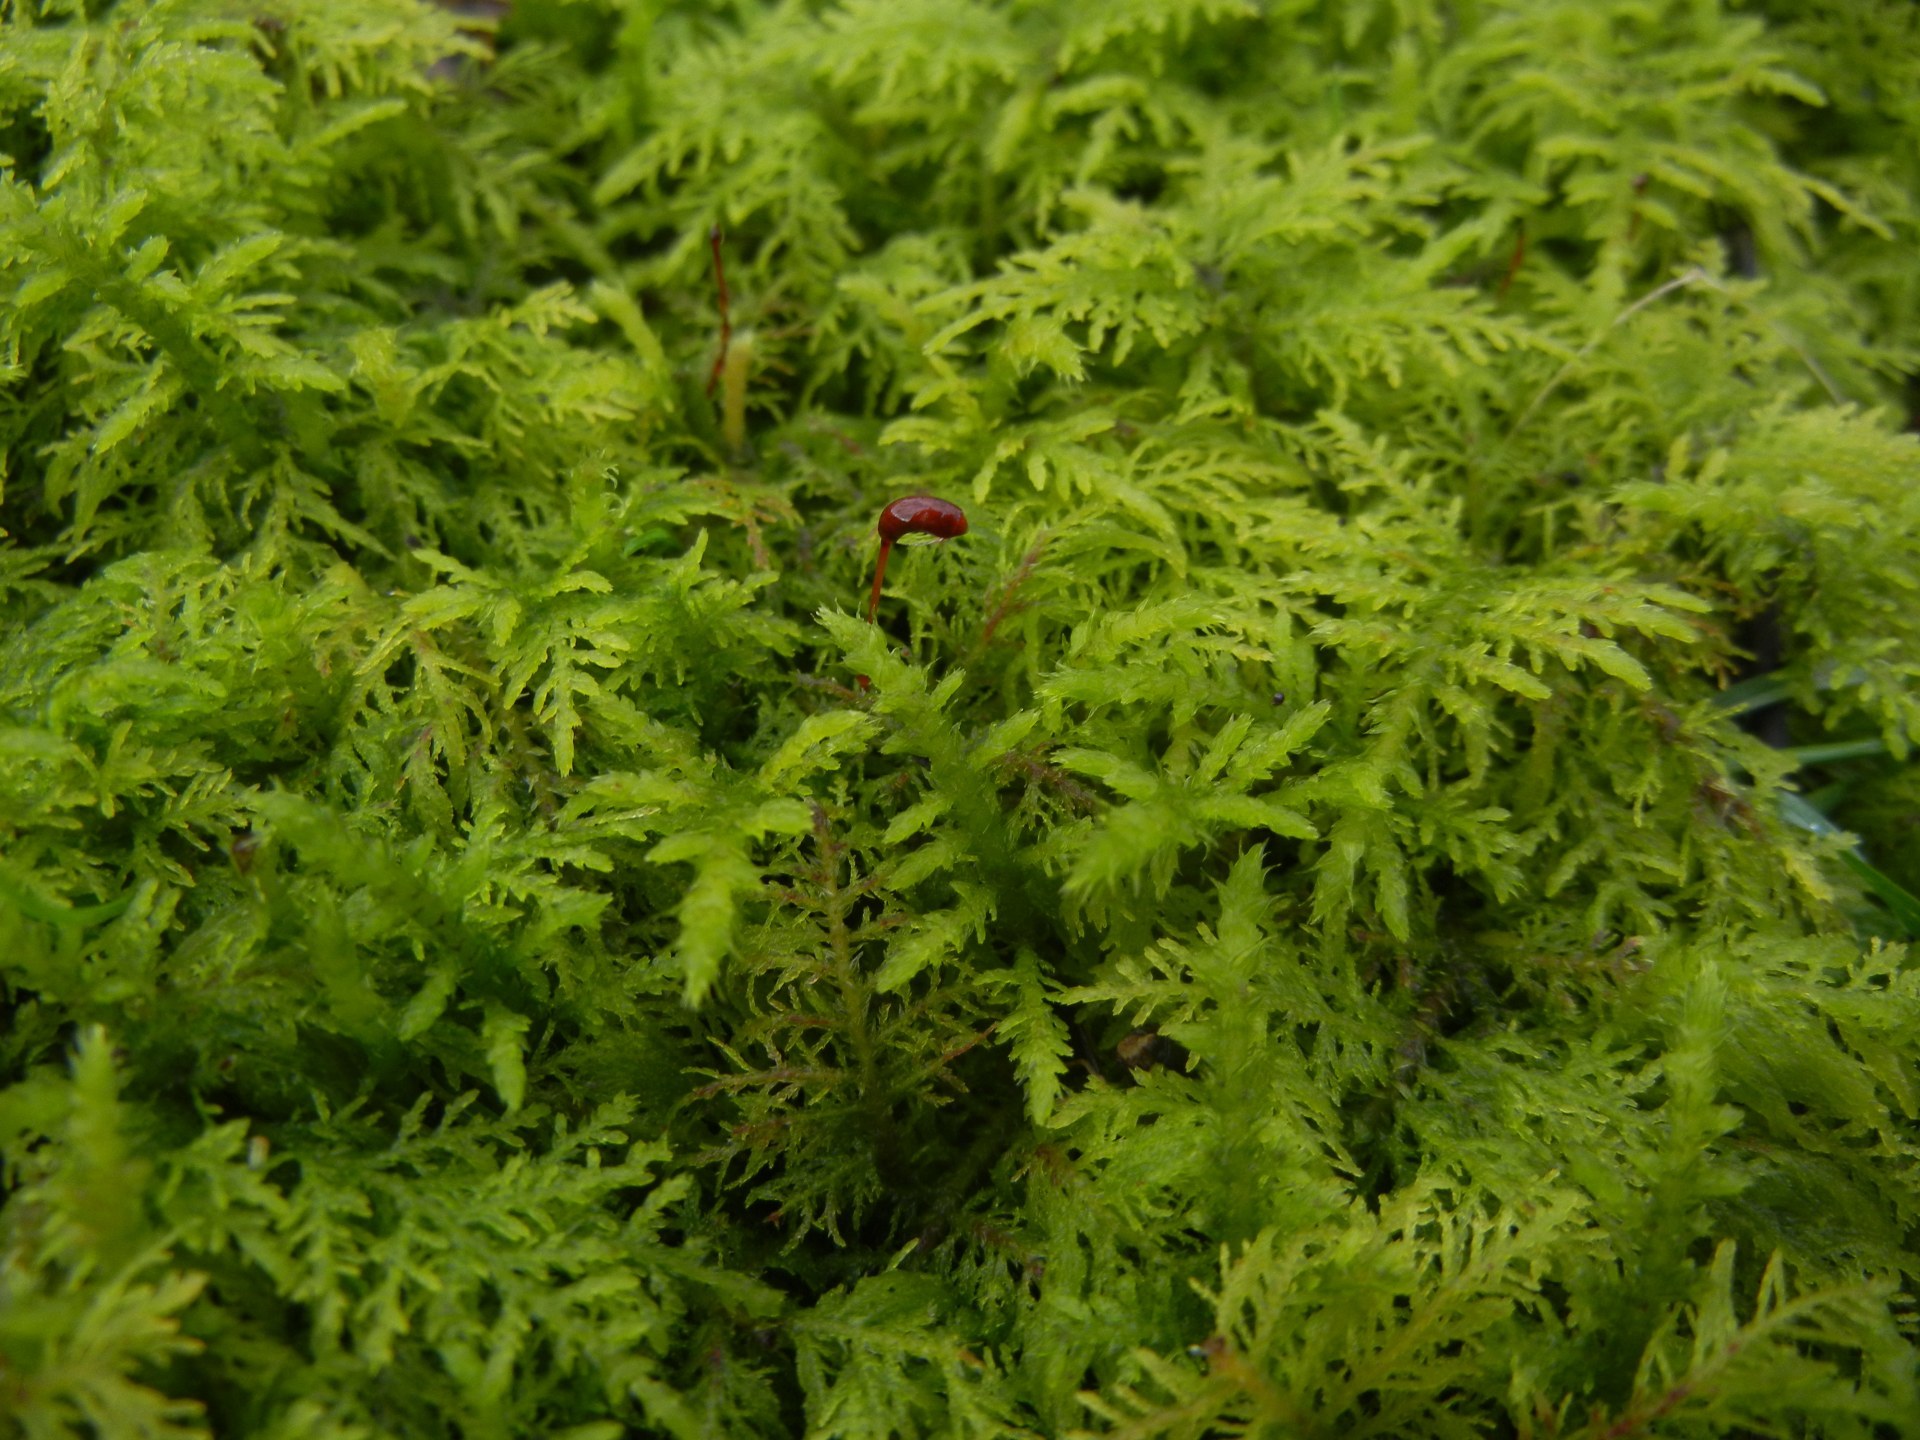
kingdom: Plantae
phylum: Bryophyta
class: Bryopsida
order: Hypnales
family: Thuidiaceae
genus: Thuidium
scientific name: Thuidium tamariscinum
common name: Common tamarisk-moss
